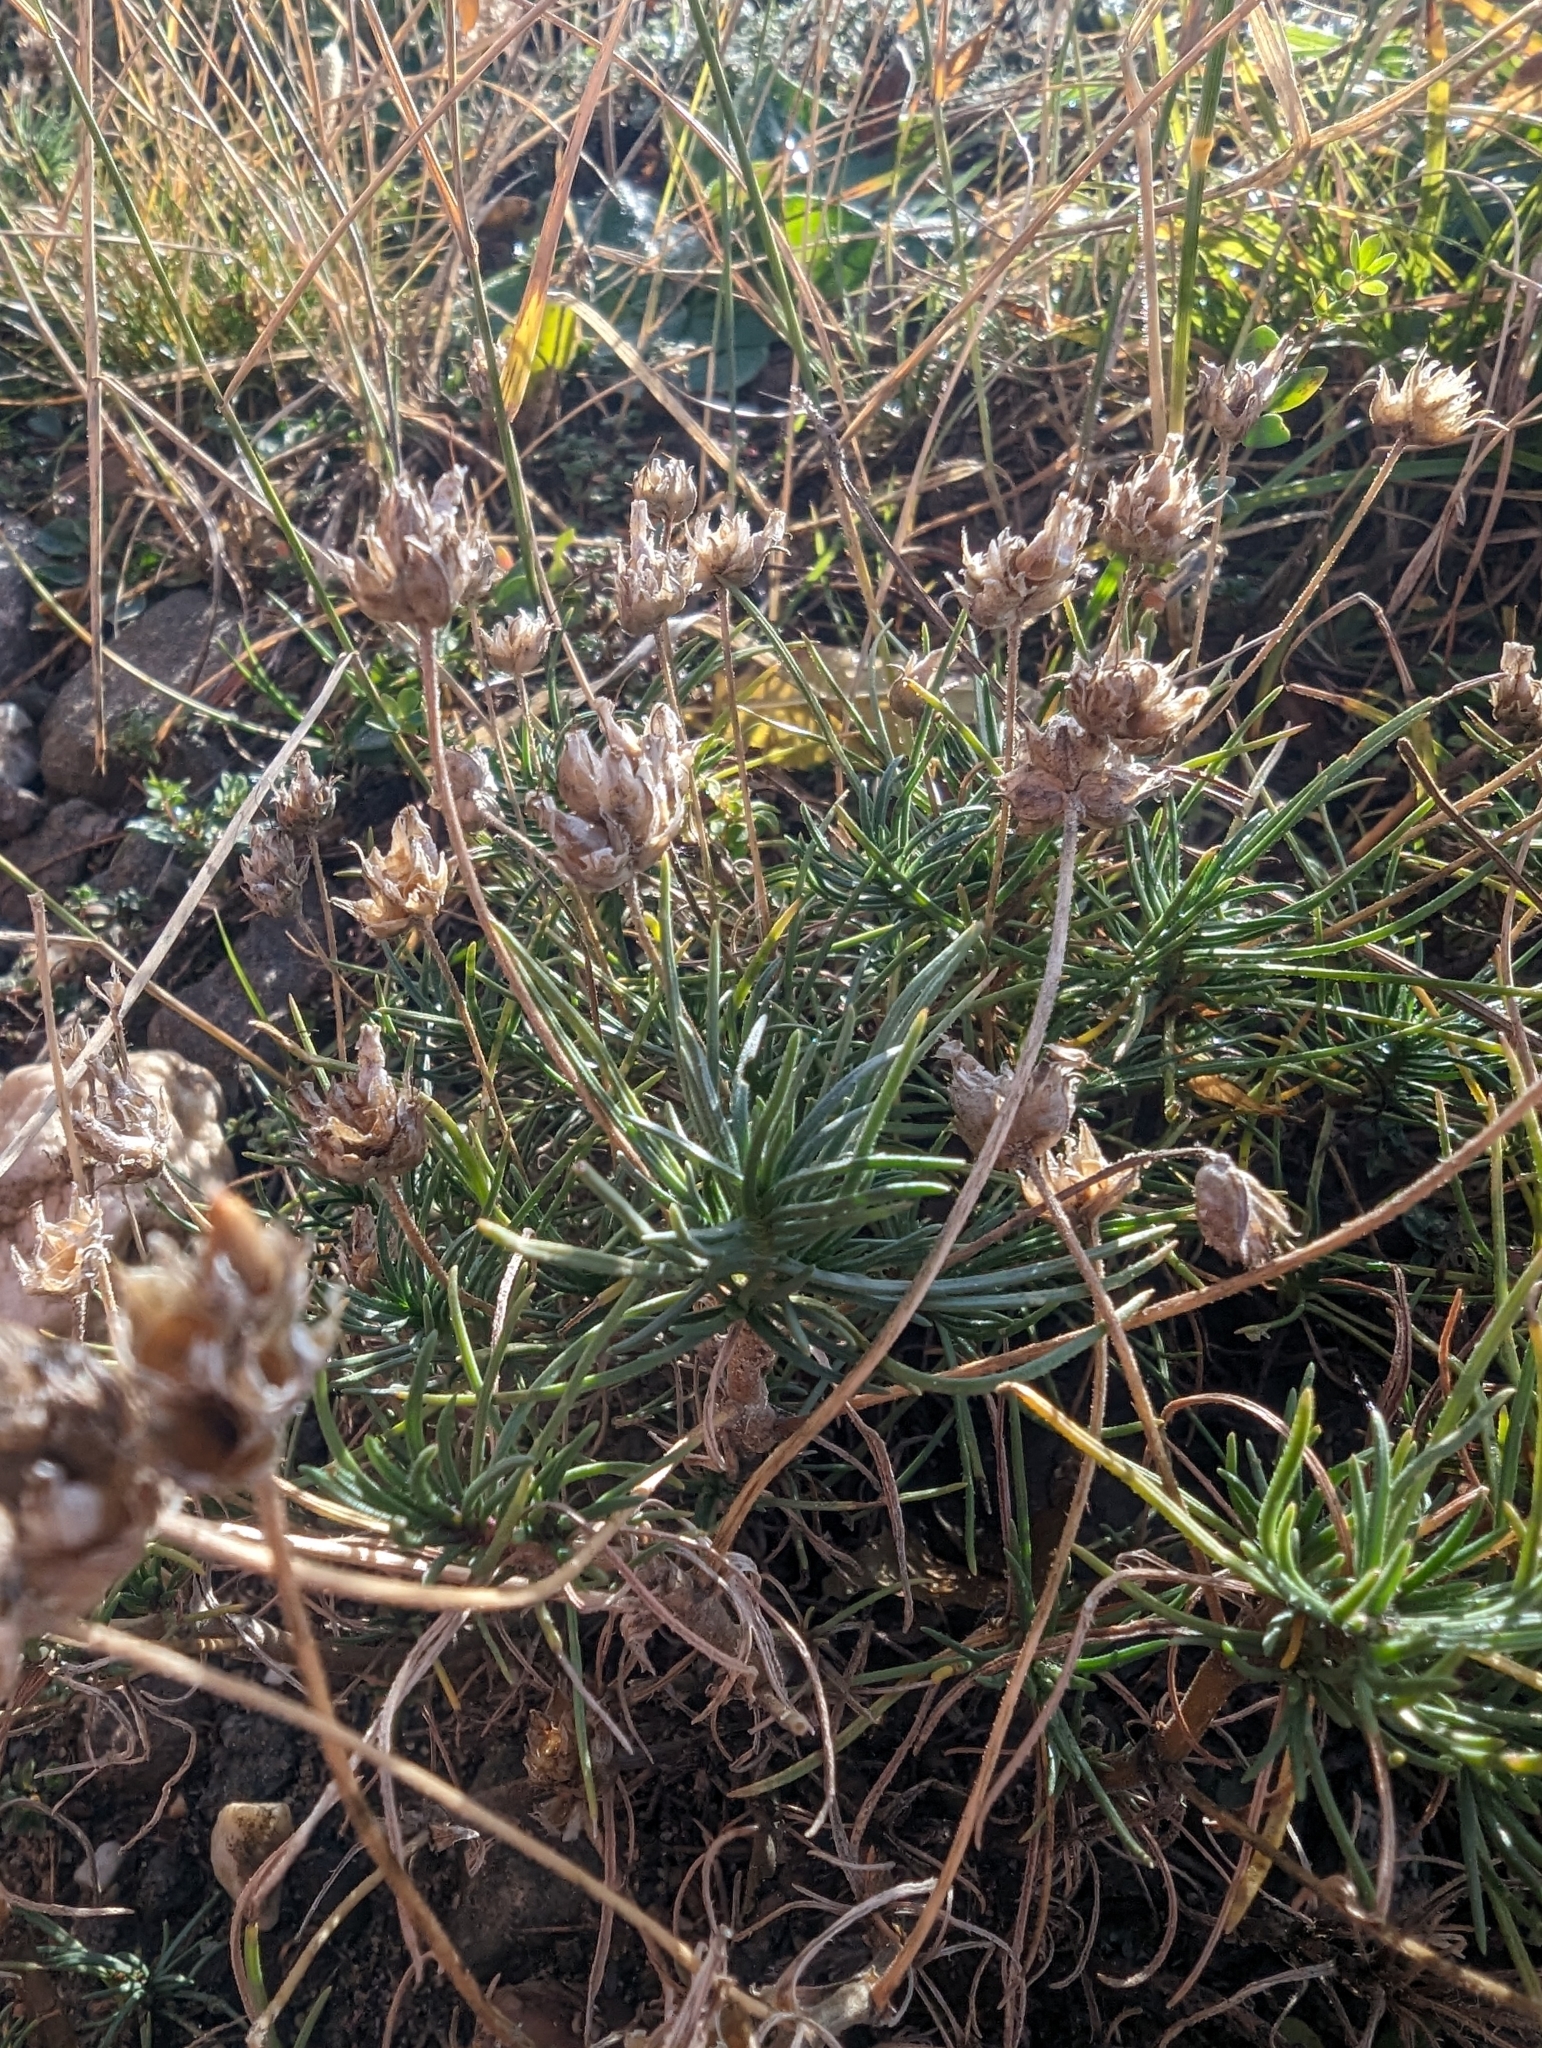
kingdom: Plantae
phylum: Tracheophyta
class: Magnoliopsida
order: Lamiales
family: Plantaginaceae
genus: Plantago
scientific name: Plantago sempervirens
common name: Shrubby plantain
